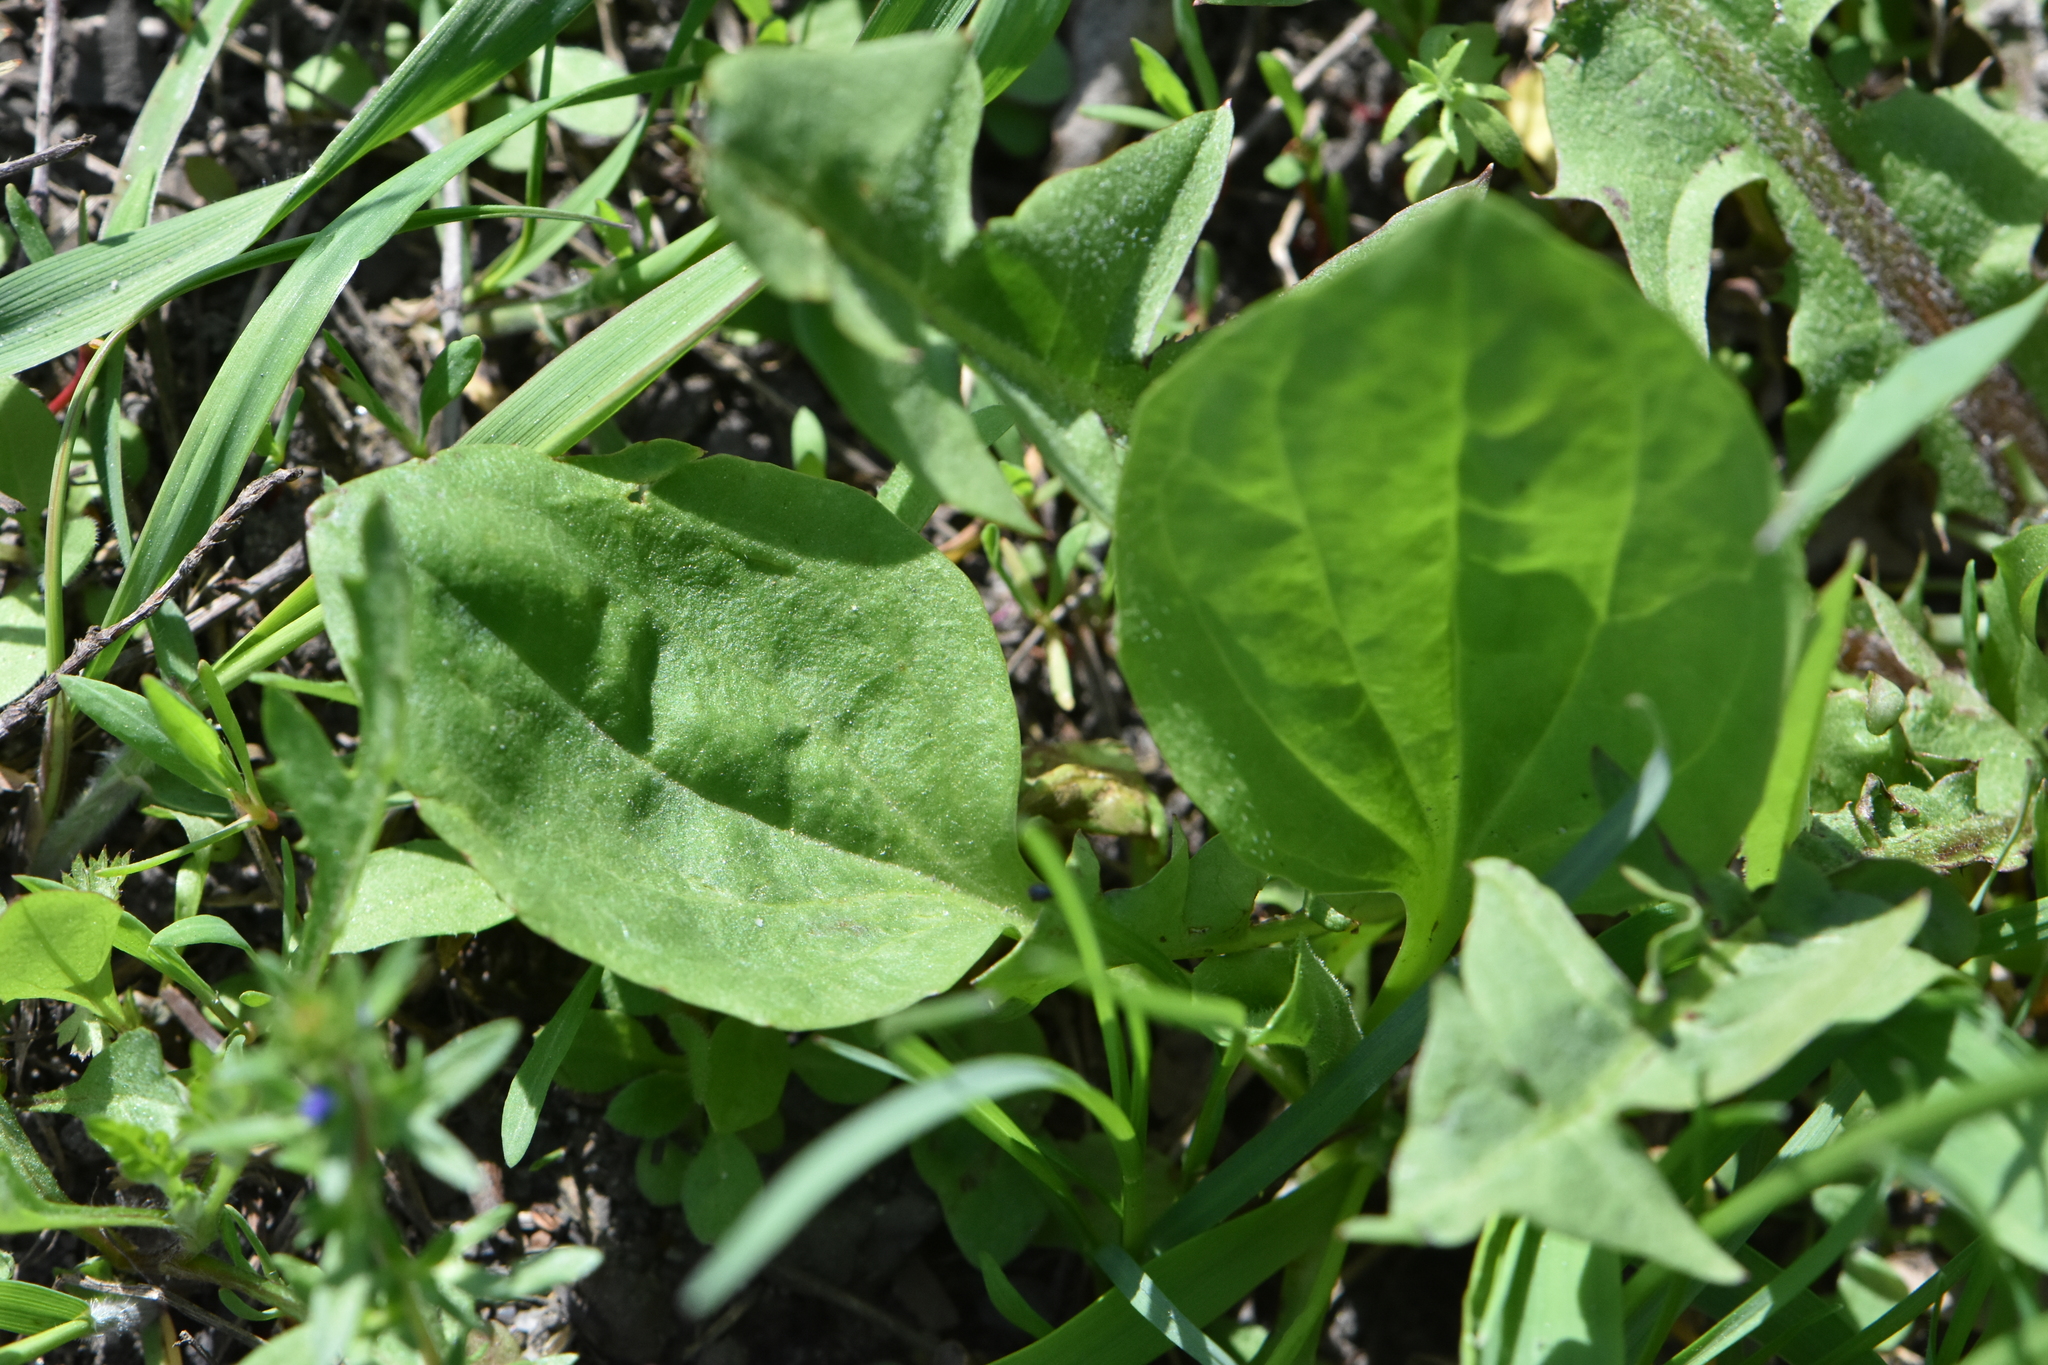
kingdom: Plantae
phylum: Tracheophyta
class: Magnoliopsida
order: Lamiales
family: Plantaginaceae
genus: Plantago
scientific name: Plantago major
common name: Common plantain
